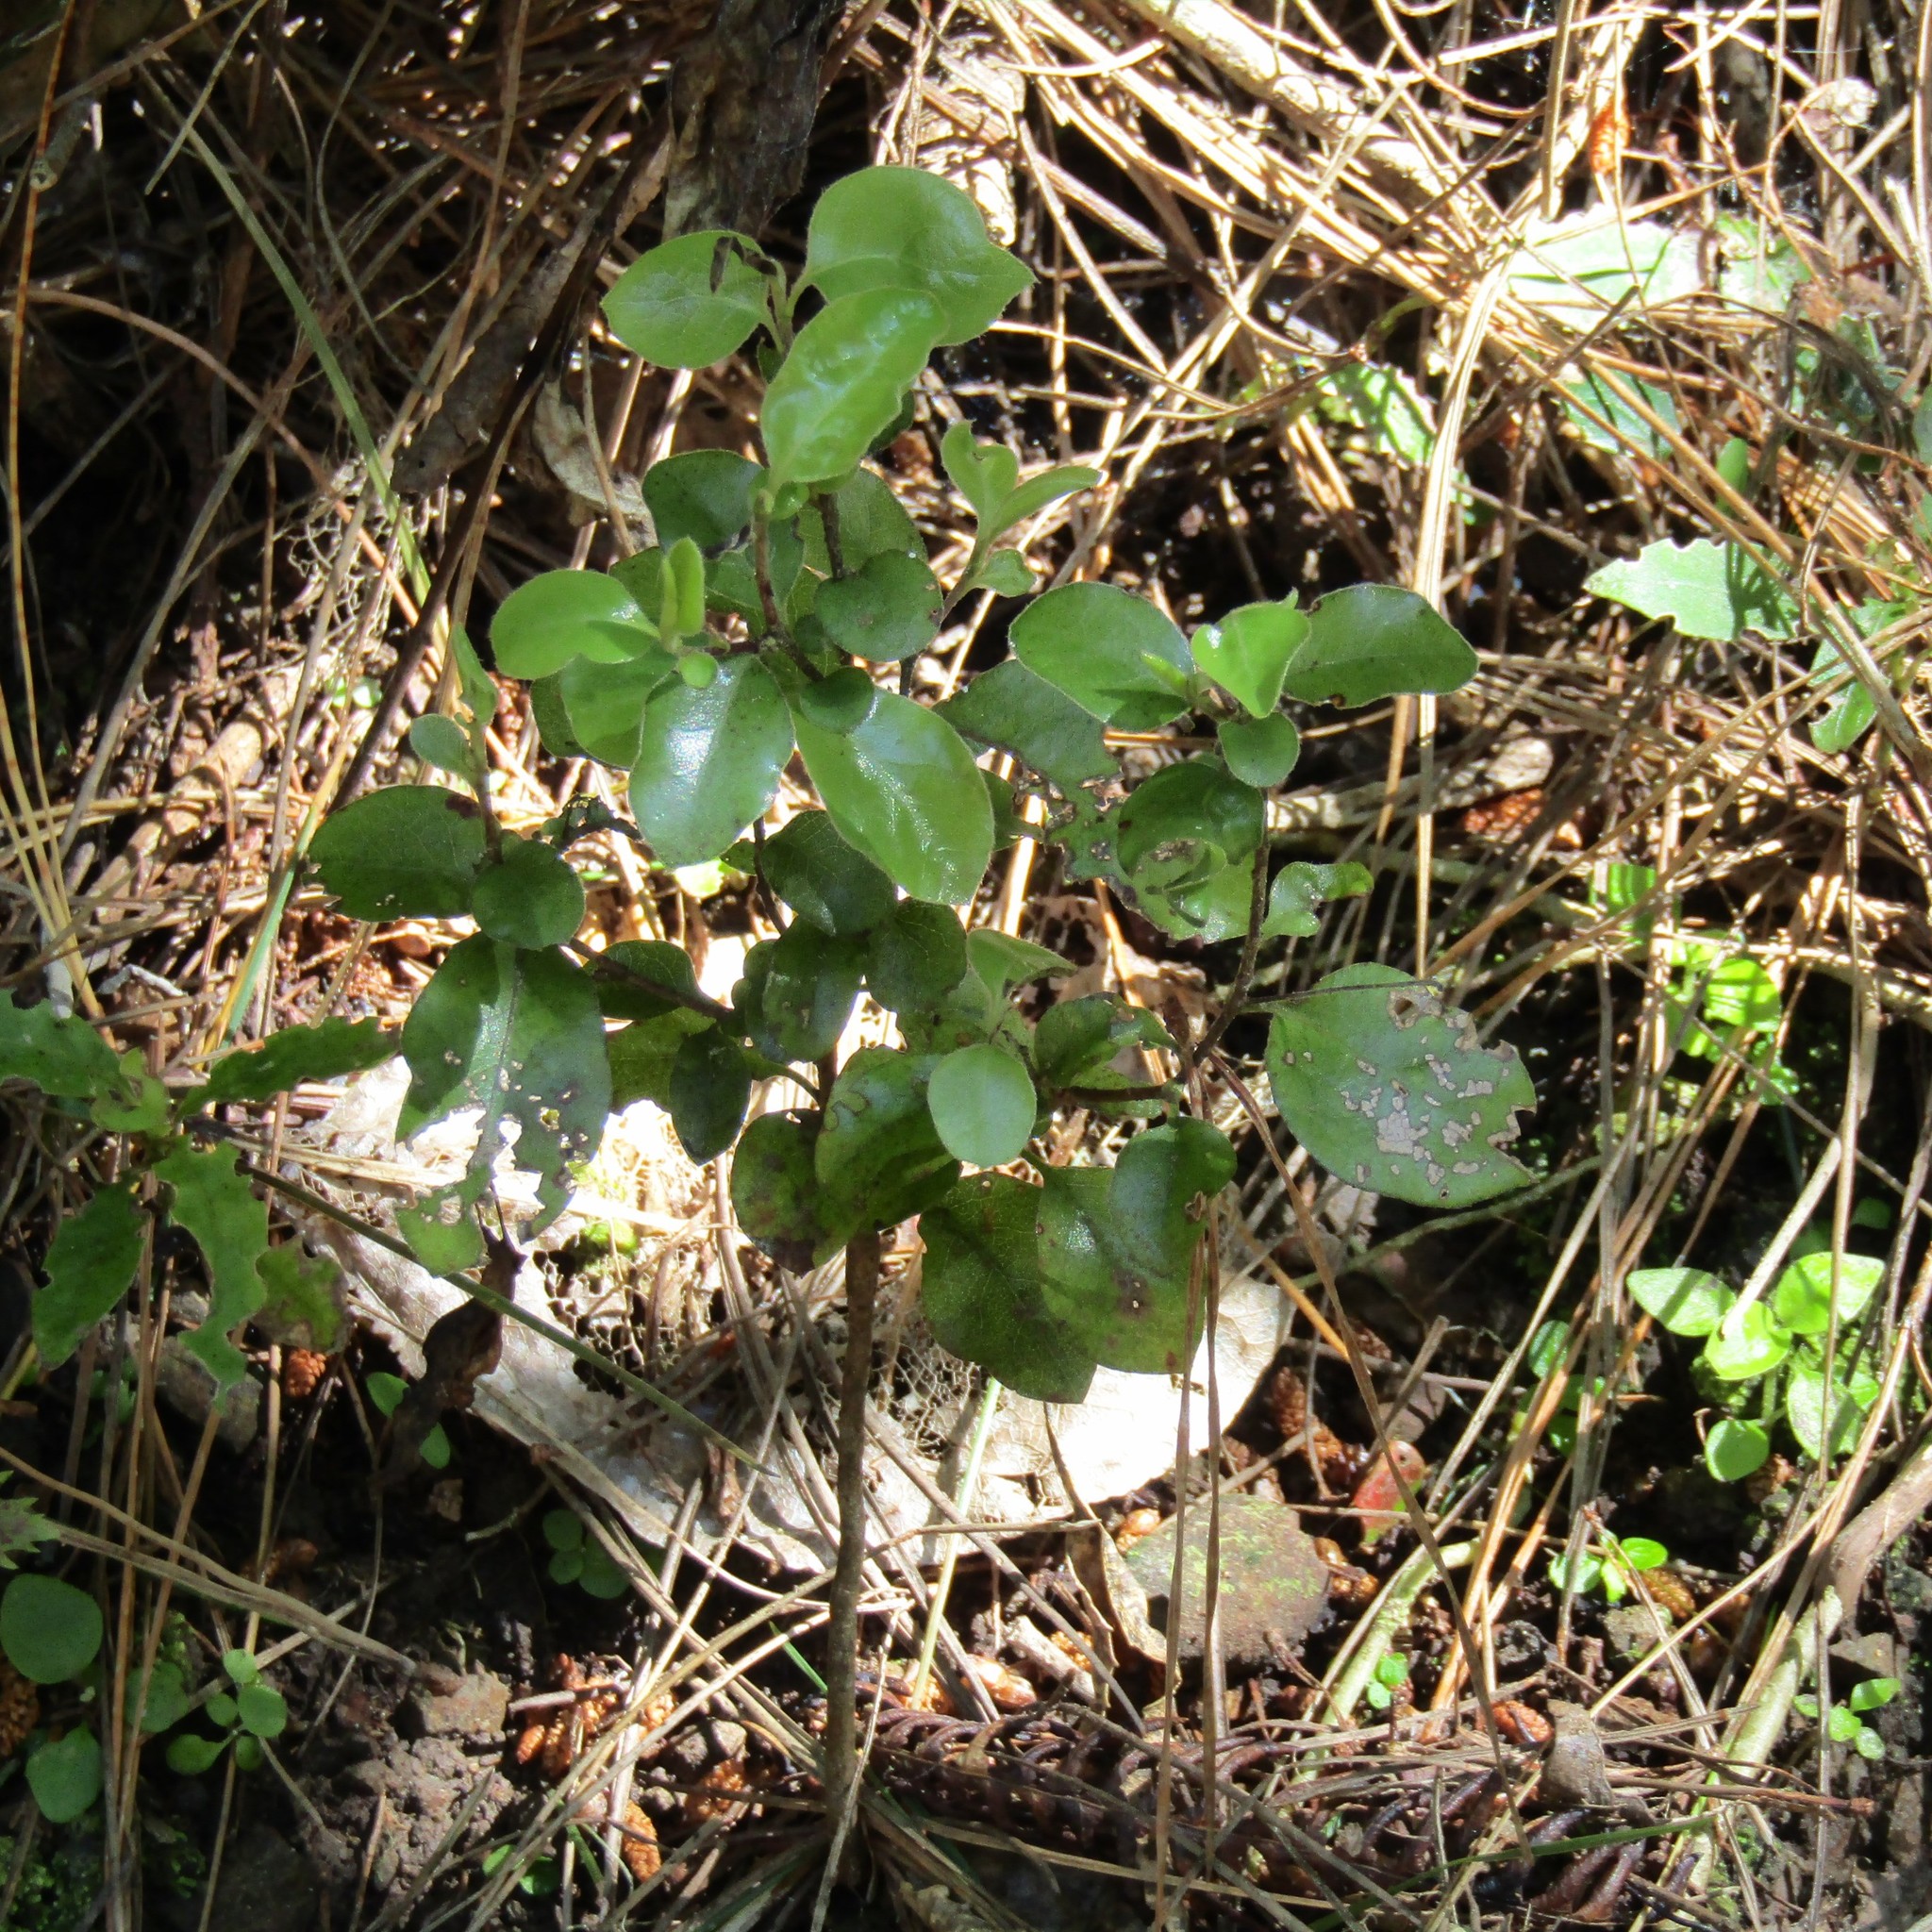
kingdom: Plantae
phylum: Tracheophyta
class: Magnoliopsida
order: Apiales
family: Pittosporaceae
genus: Pittosporum
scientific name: Pittosporum tenuifolium
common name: Kohuhu
